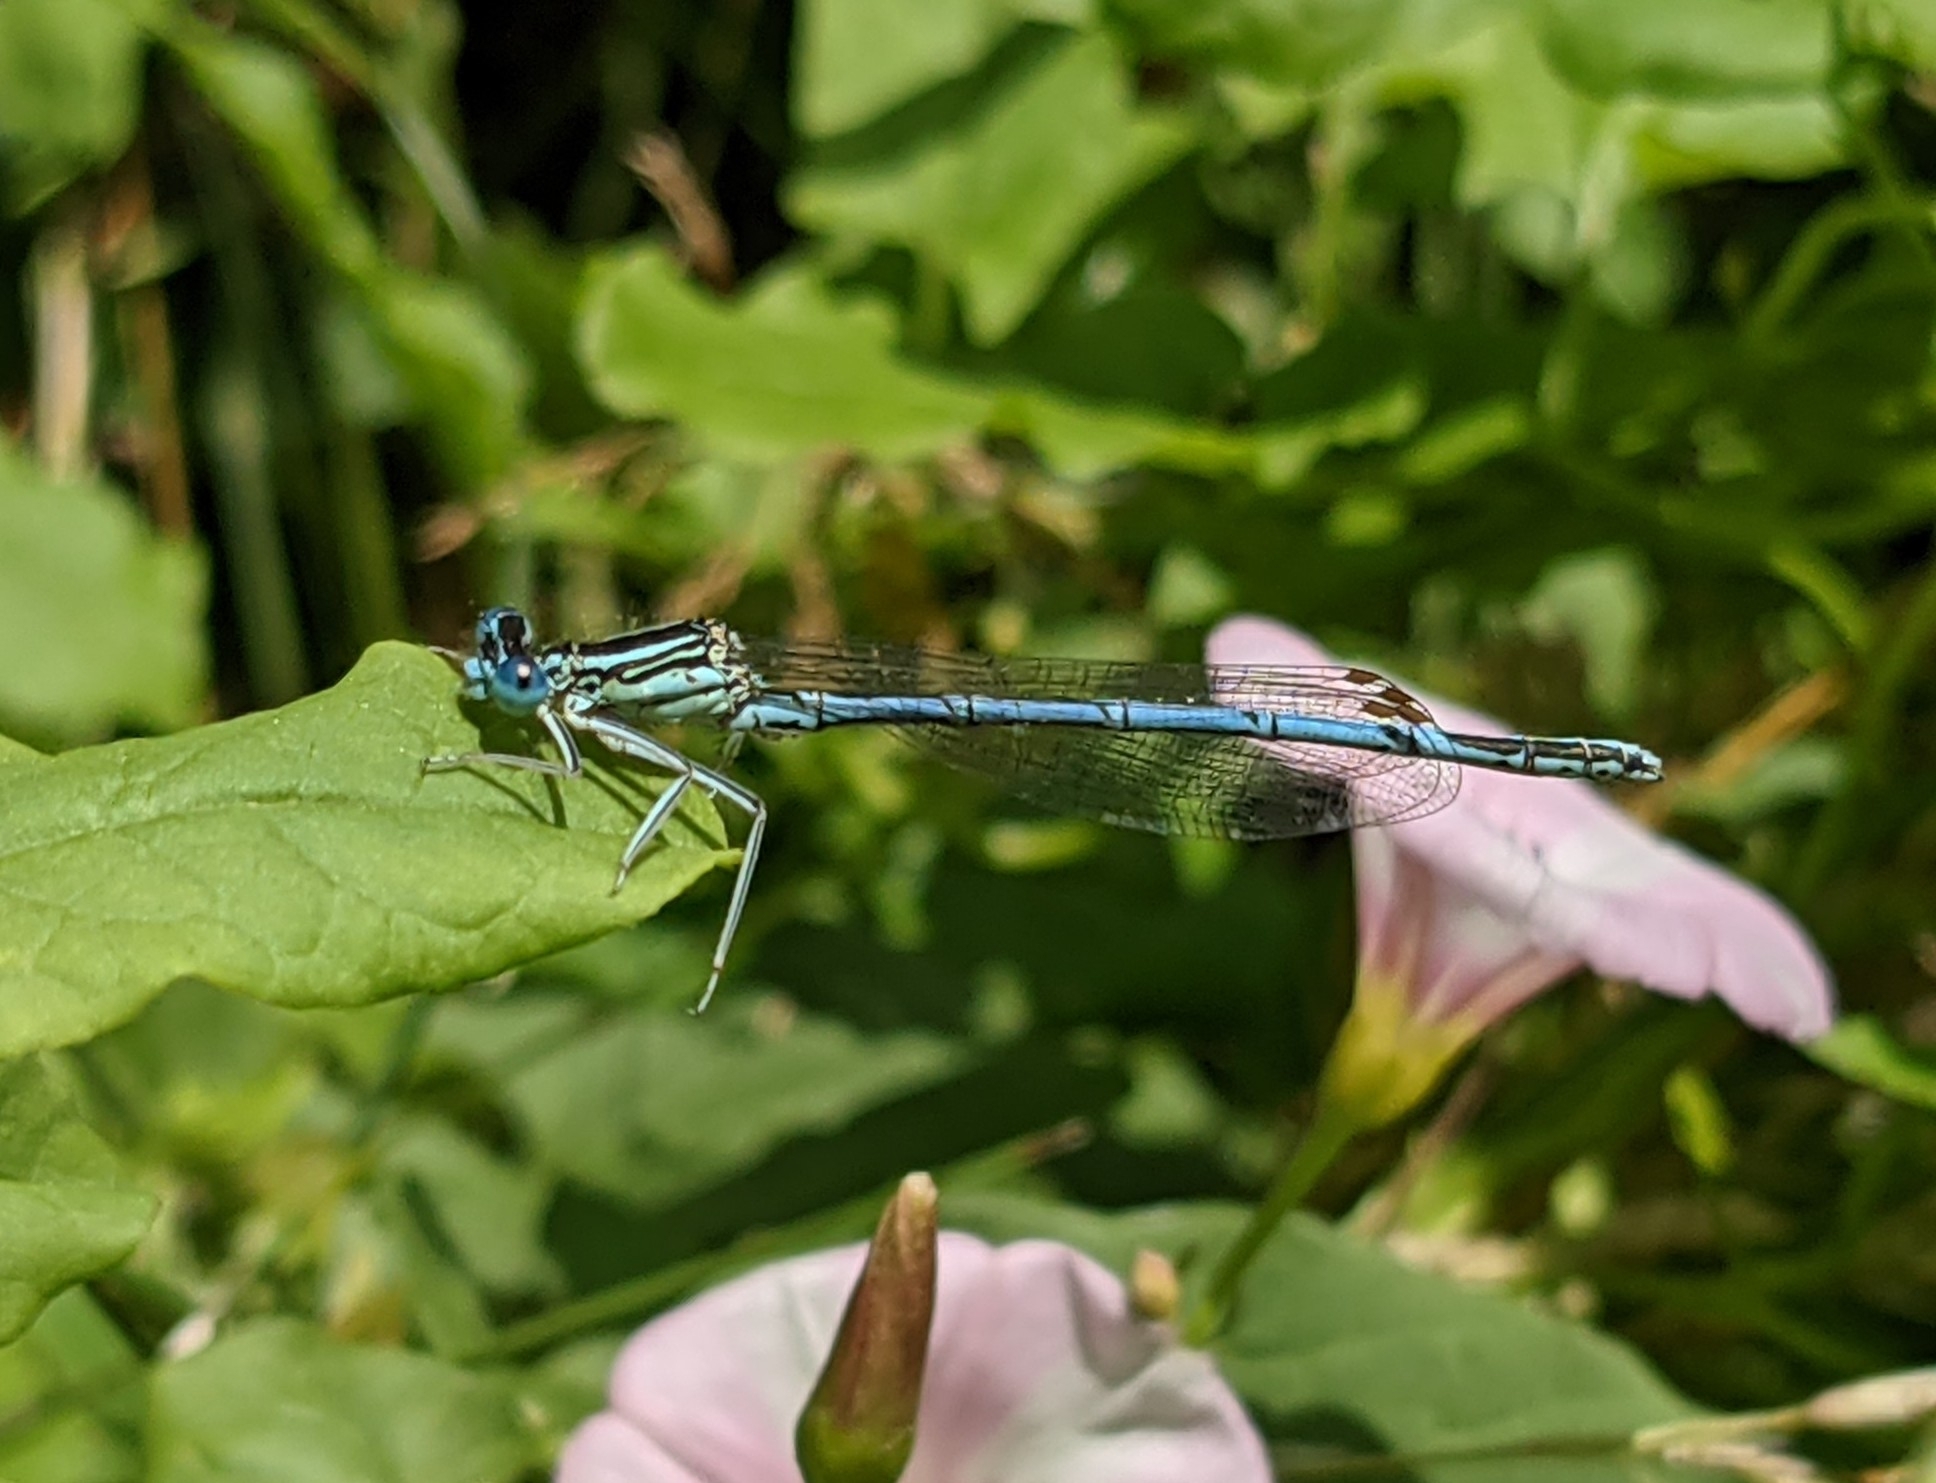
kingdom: Animalia
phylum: Arthropoda
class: Insecta
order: Odonata
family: Platycnemididae
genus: Platycnemis
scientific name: Platycnemis pennipes
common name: White-legged damselfly
